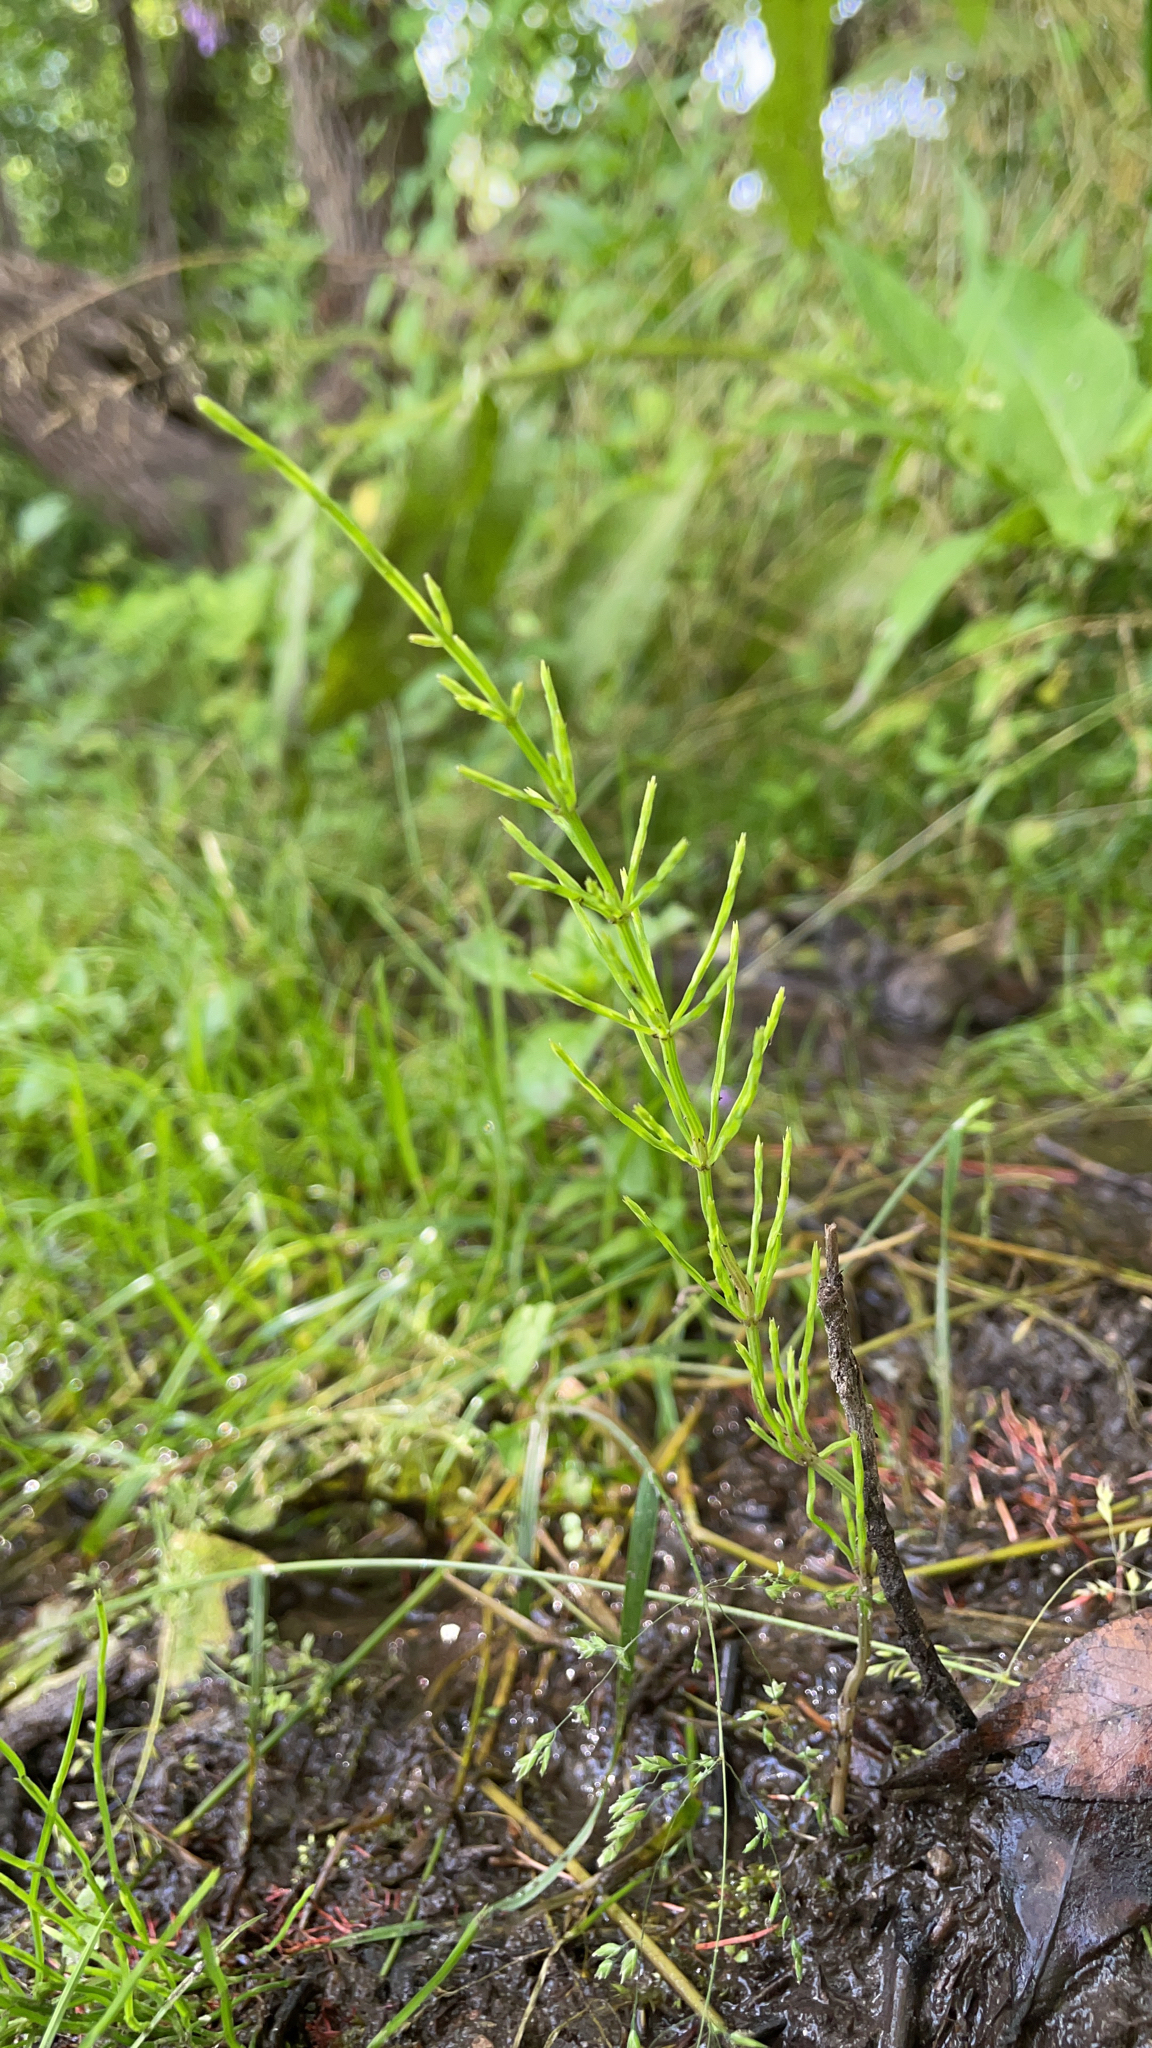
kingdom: Plantae
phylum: Tracheophyta
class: Polypodiopsida
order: Equisetales
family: Equisetaceae
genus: Equisetum
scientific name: Equisetum arvense
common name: Field horsetail
